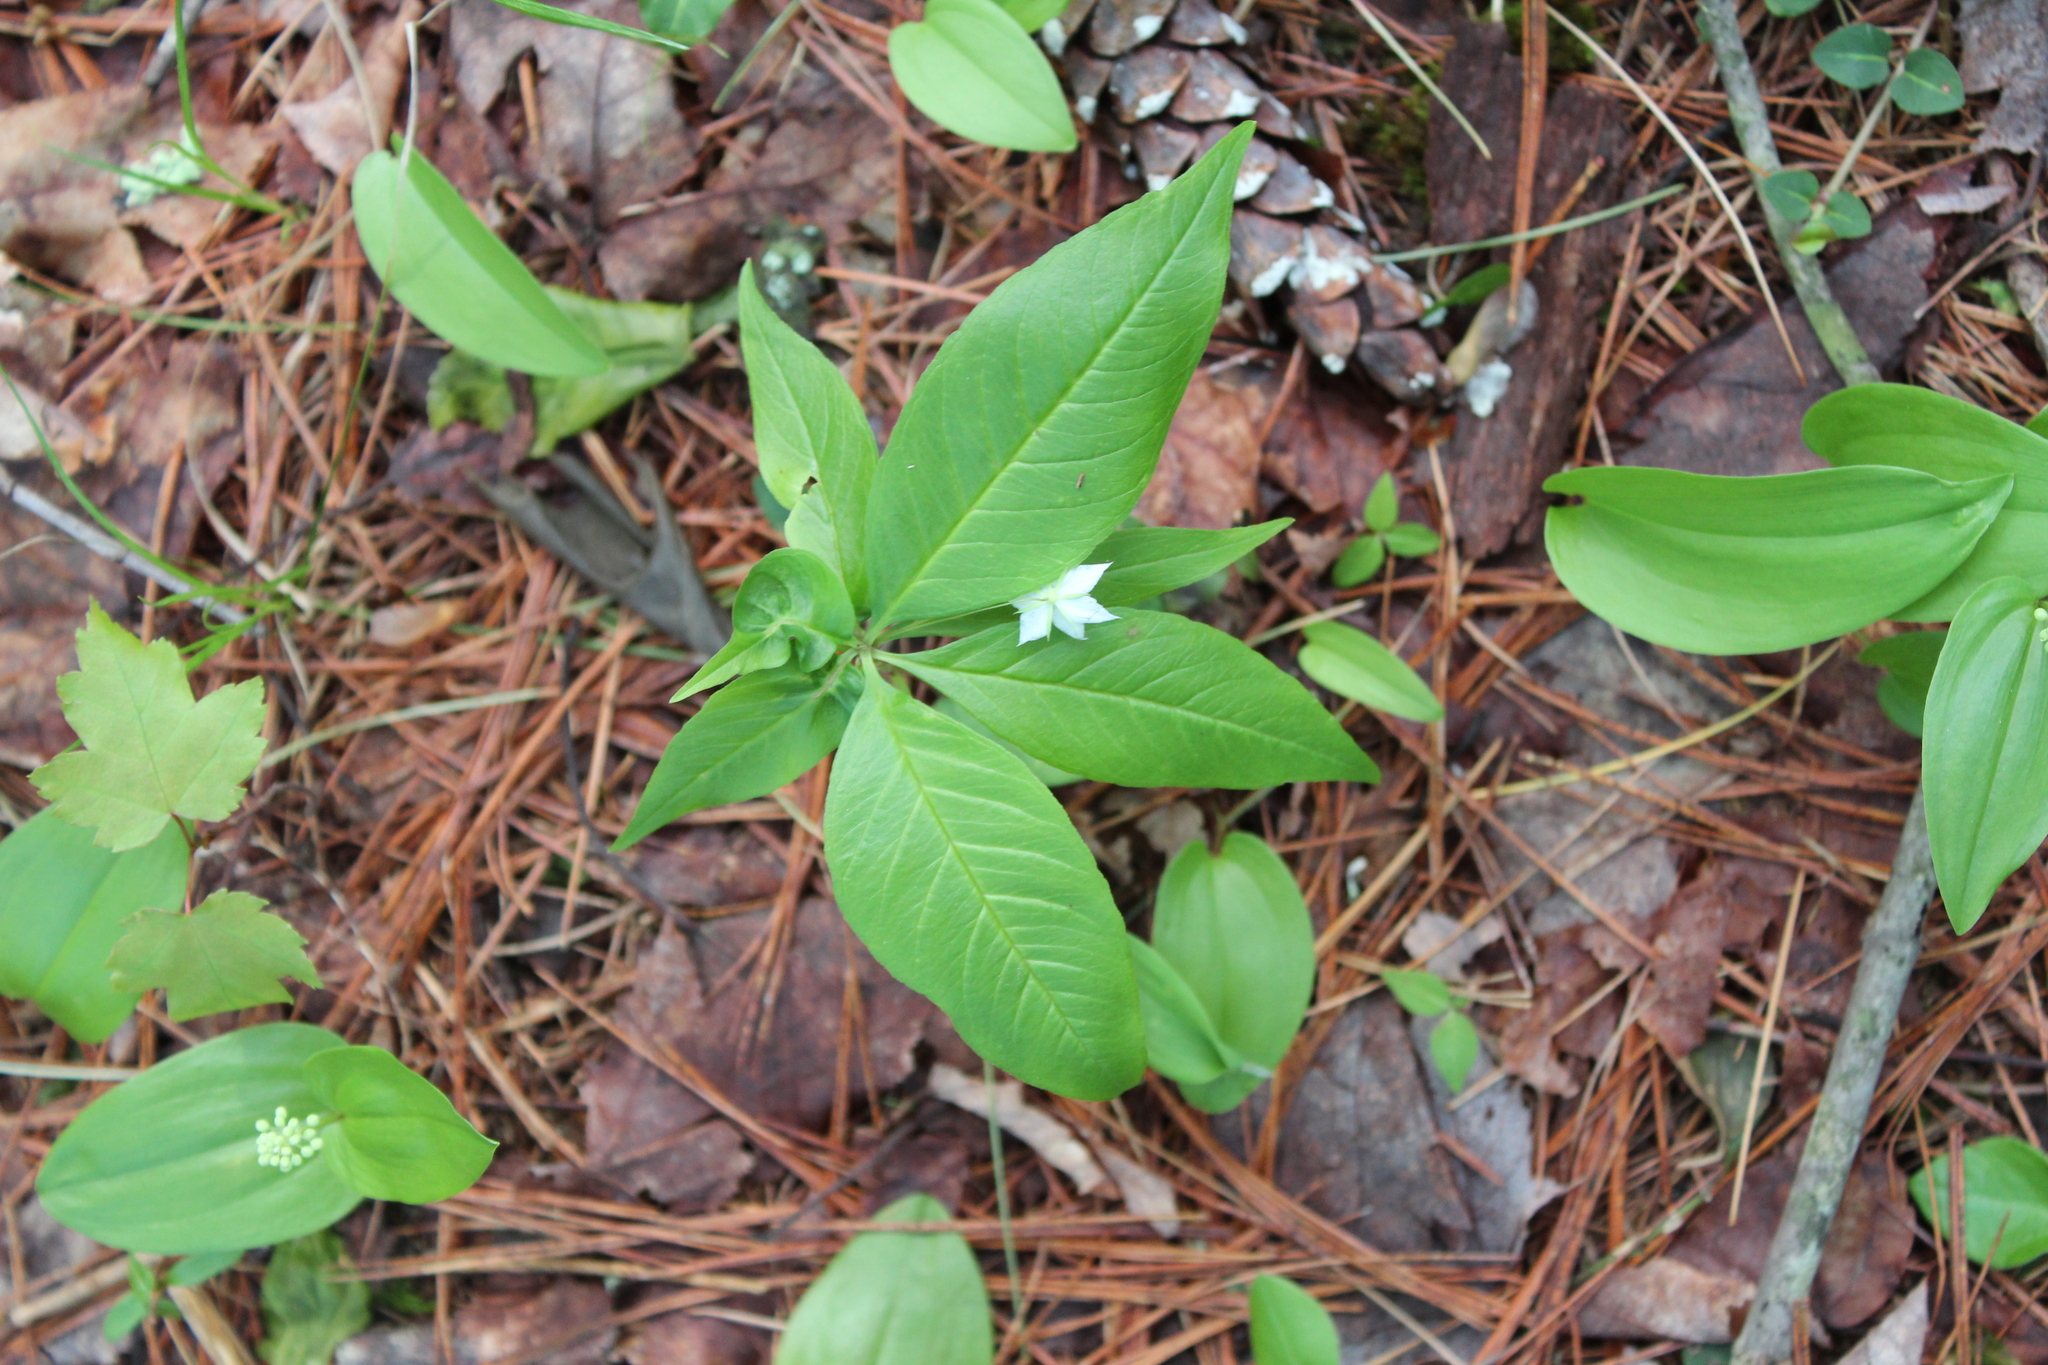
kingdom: Plantae
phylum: Tracheophyta
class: Magnoliopsida
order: Ericales
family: Primulaceae
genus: Lysimachia
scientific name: Lysimachia borealis
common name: American starflower
